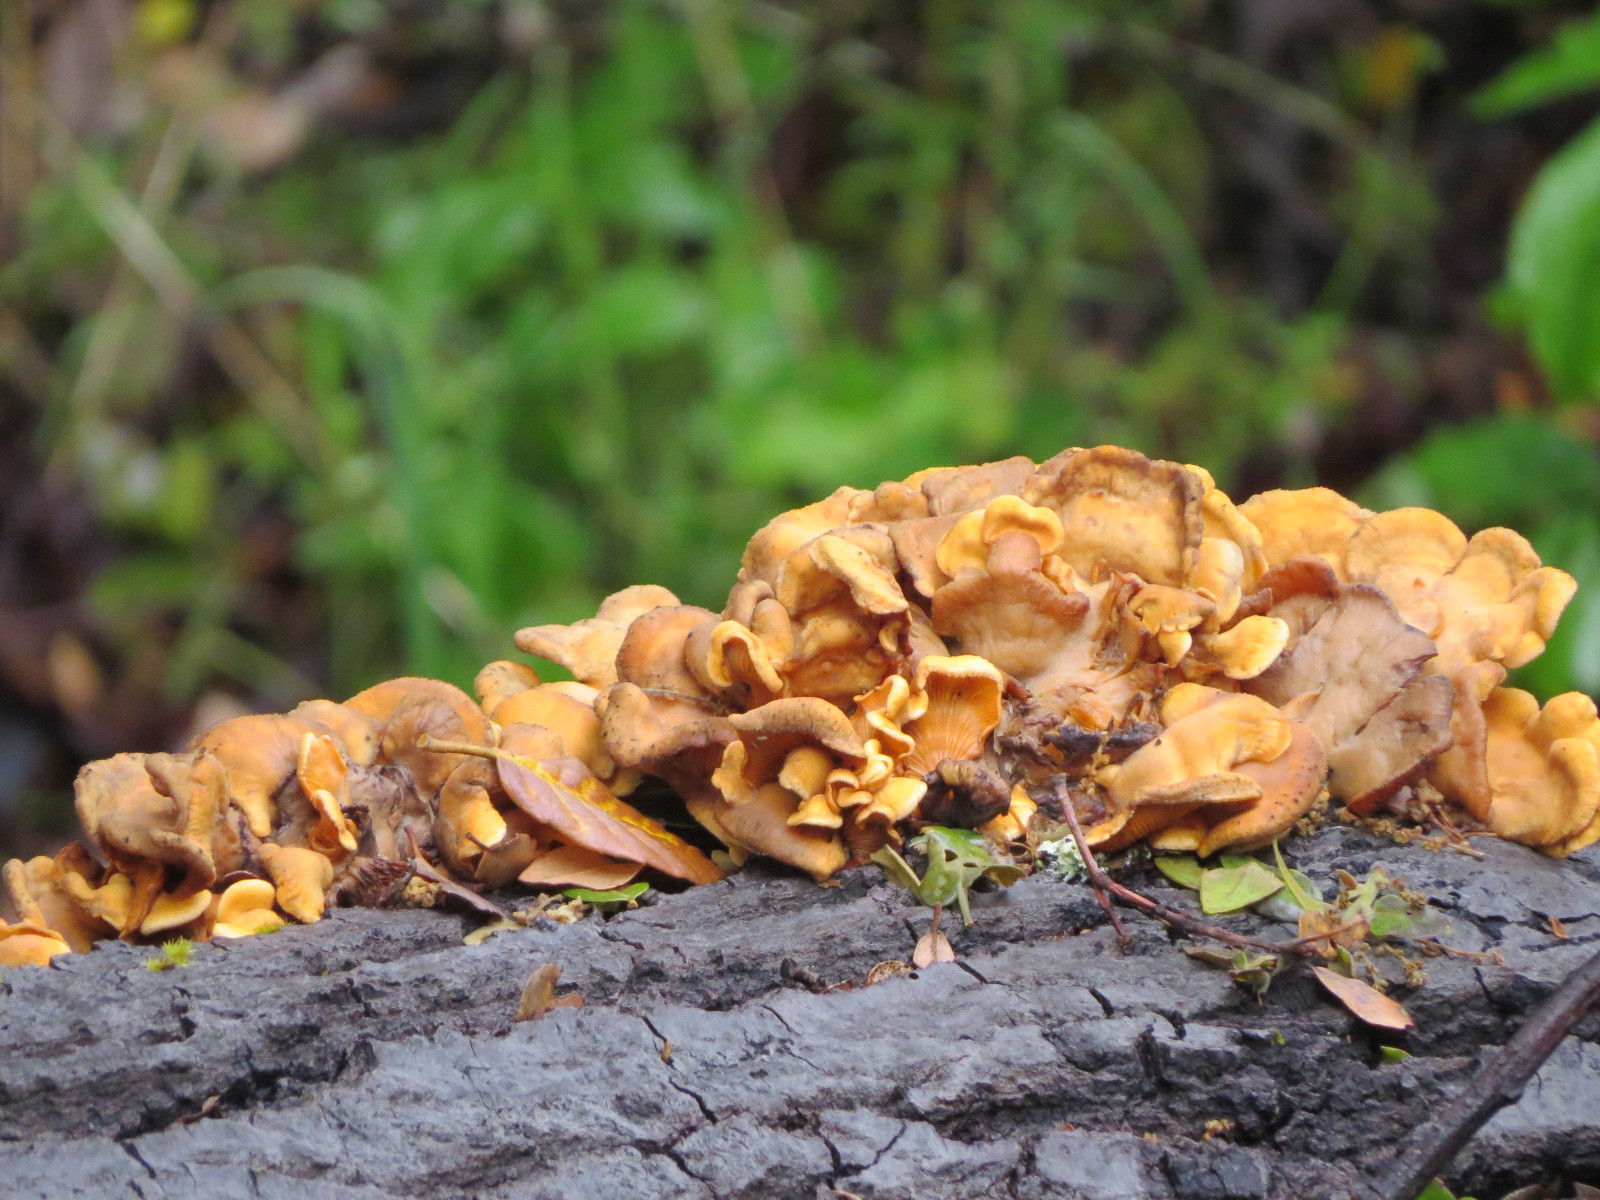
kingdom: Fungi
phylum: Basidiomycota
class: Agaricomycetes
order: Agaricales
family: Phyllotopsidaceae
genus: Phyllotopsis
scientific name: Phyllotopsis nidulans
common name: Orange mock oyster
